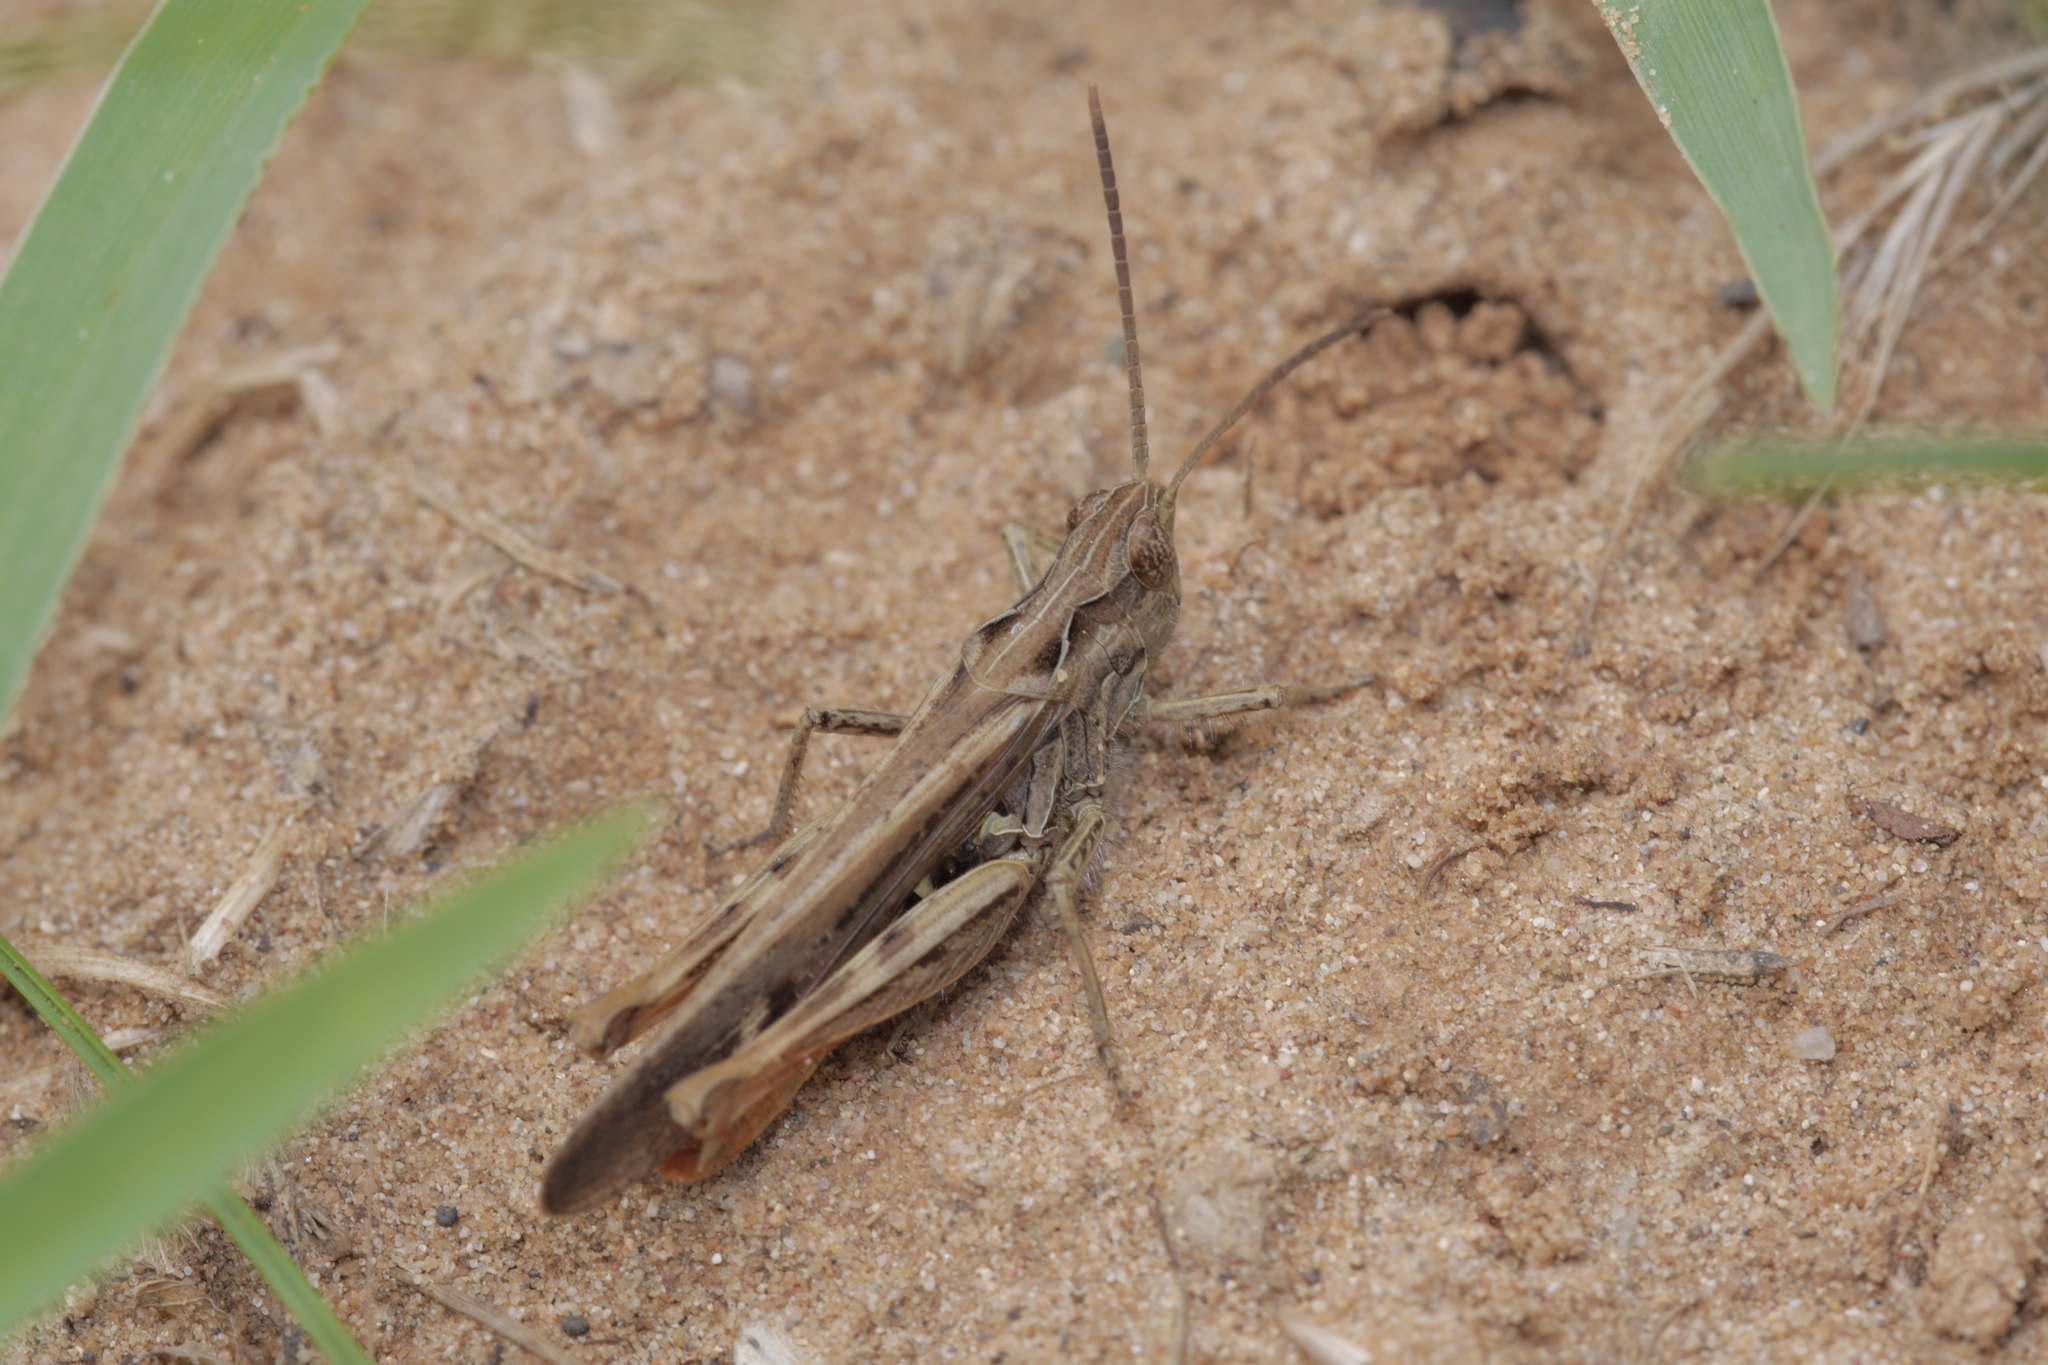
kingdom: Animalia
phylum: Arthropoda
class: Insecta
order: Orthoptera
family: Acrididae
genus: Chorthippus
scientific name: Chorthippus brunneus
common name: Field grasshopper
